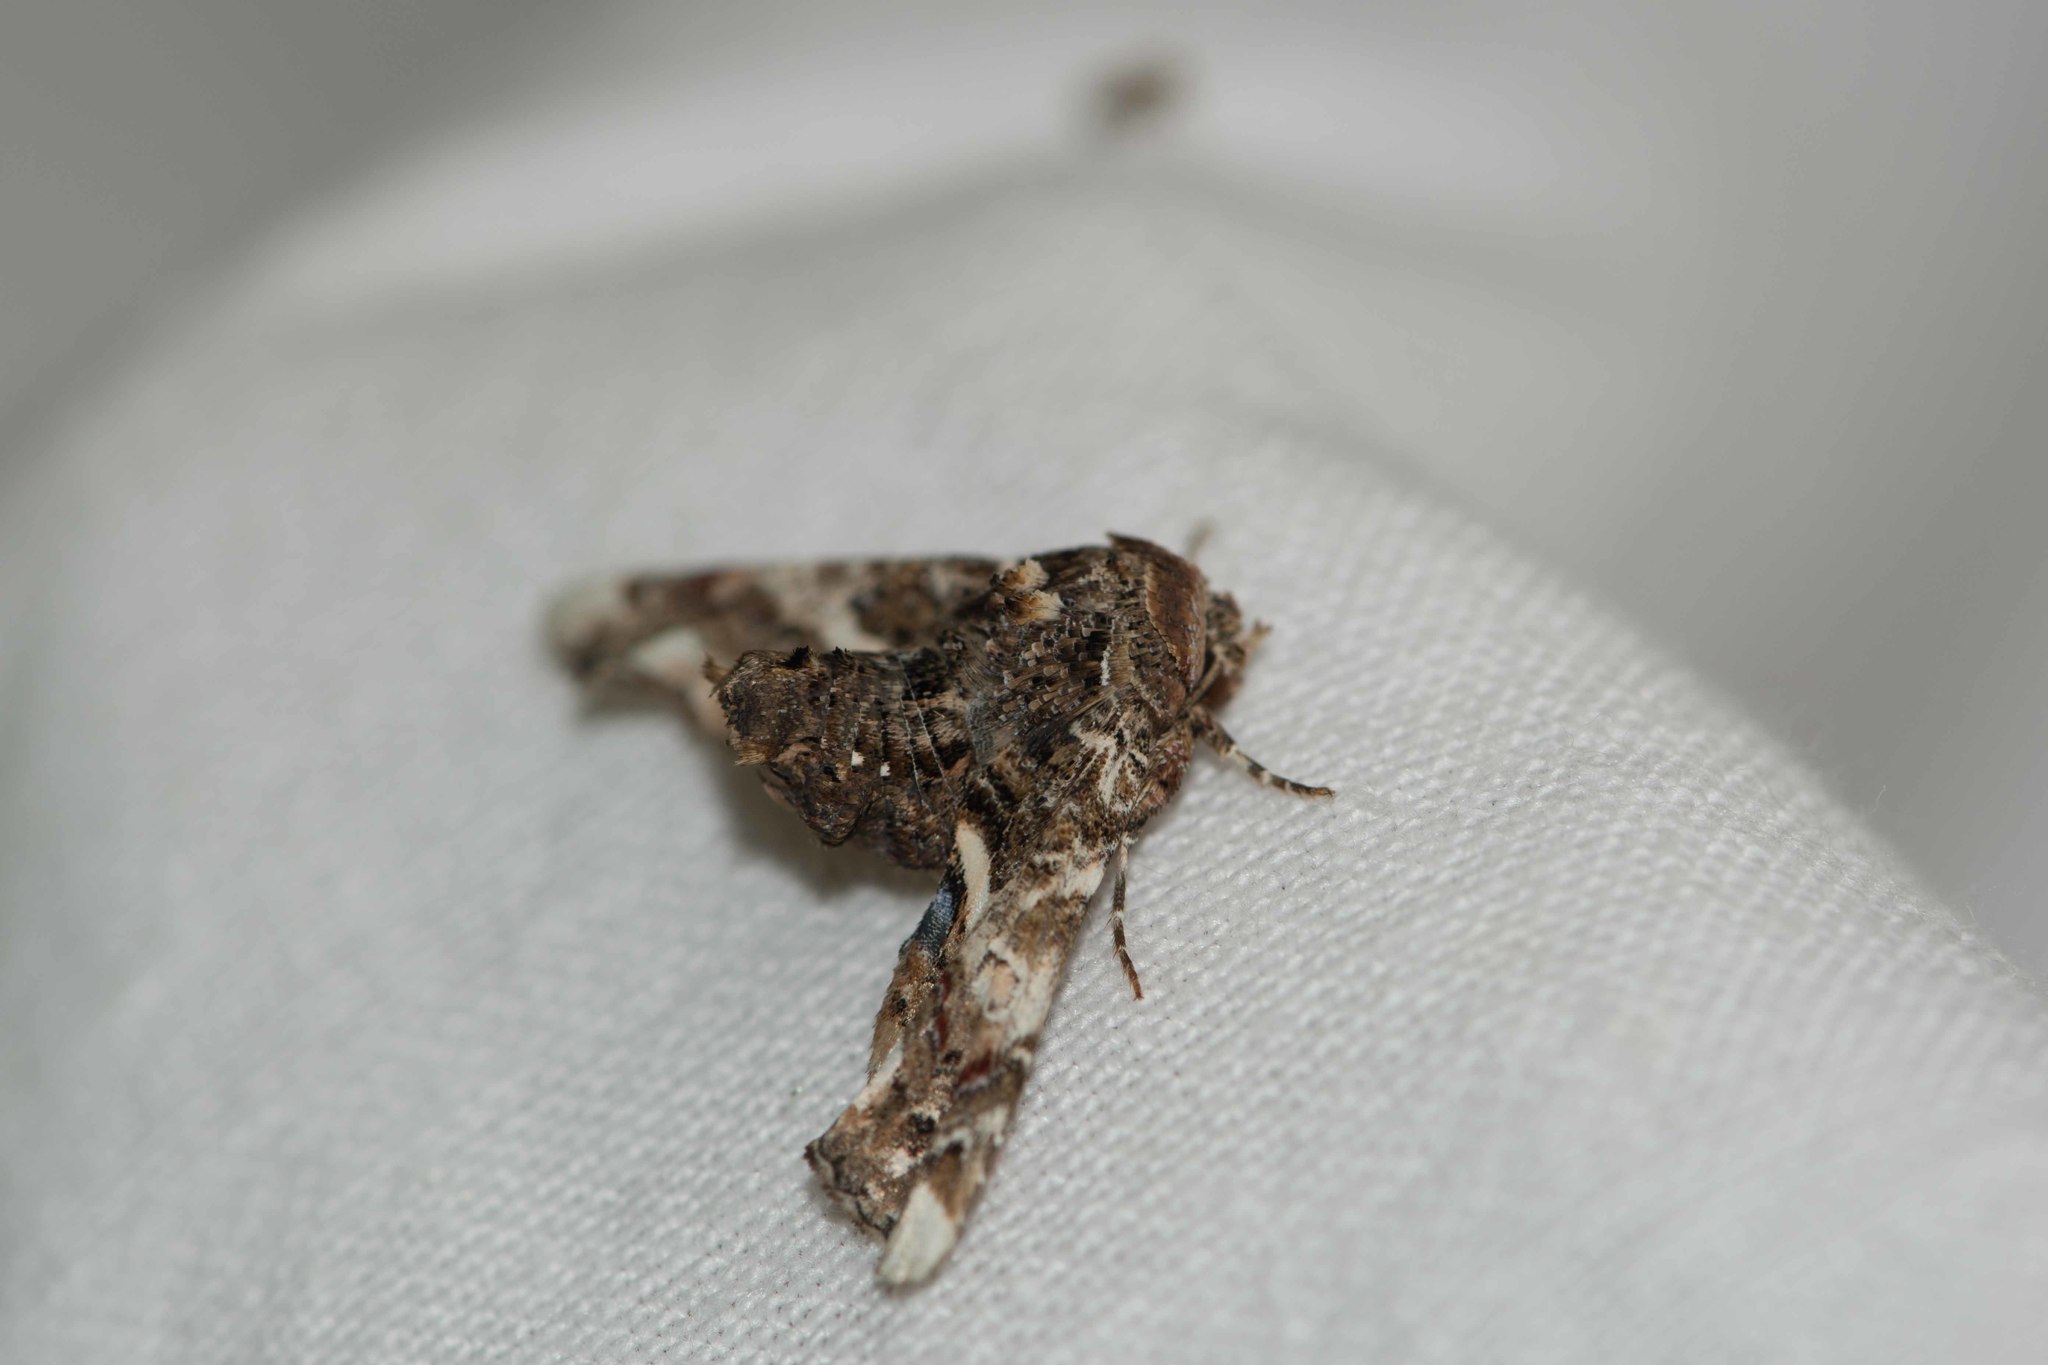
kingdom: Animalia
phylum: Arthropoda
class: Insecta
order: Lepidoptera
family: Euteliidae
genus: Eutelia
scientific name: Eutelia adulatrix
